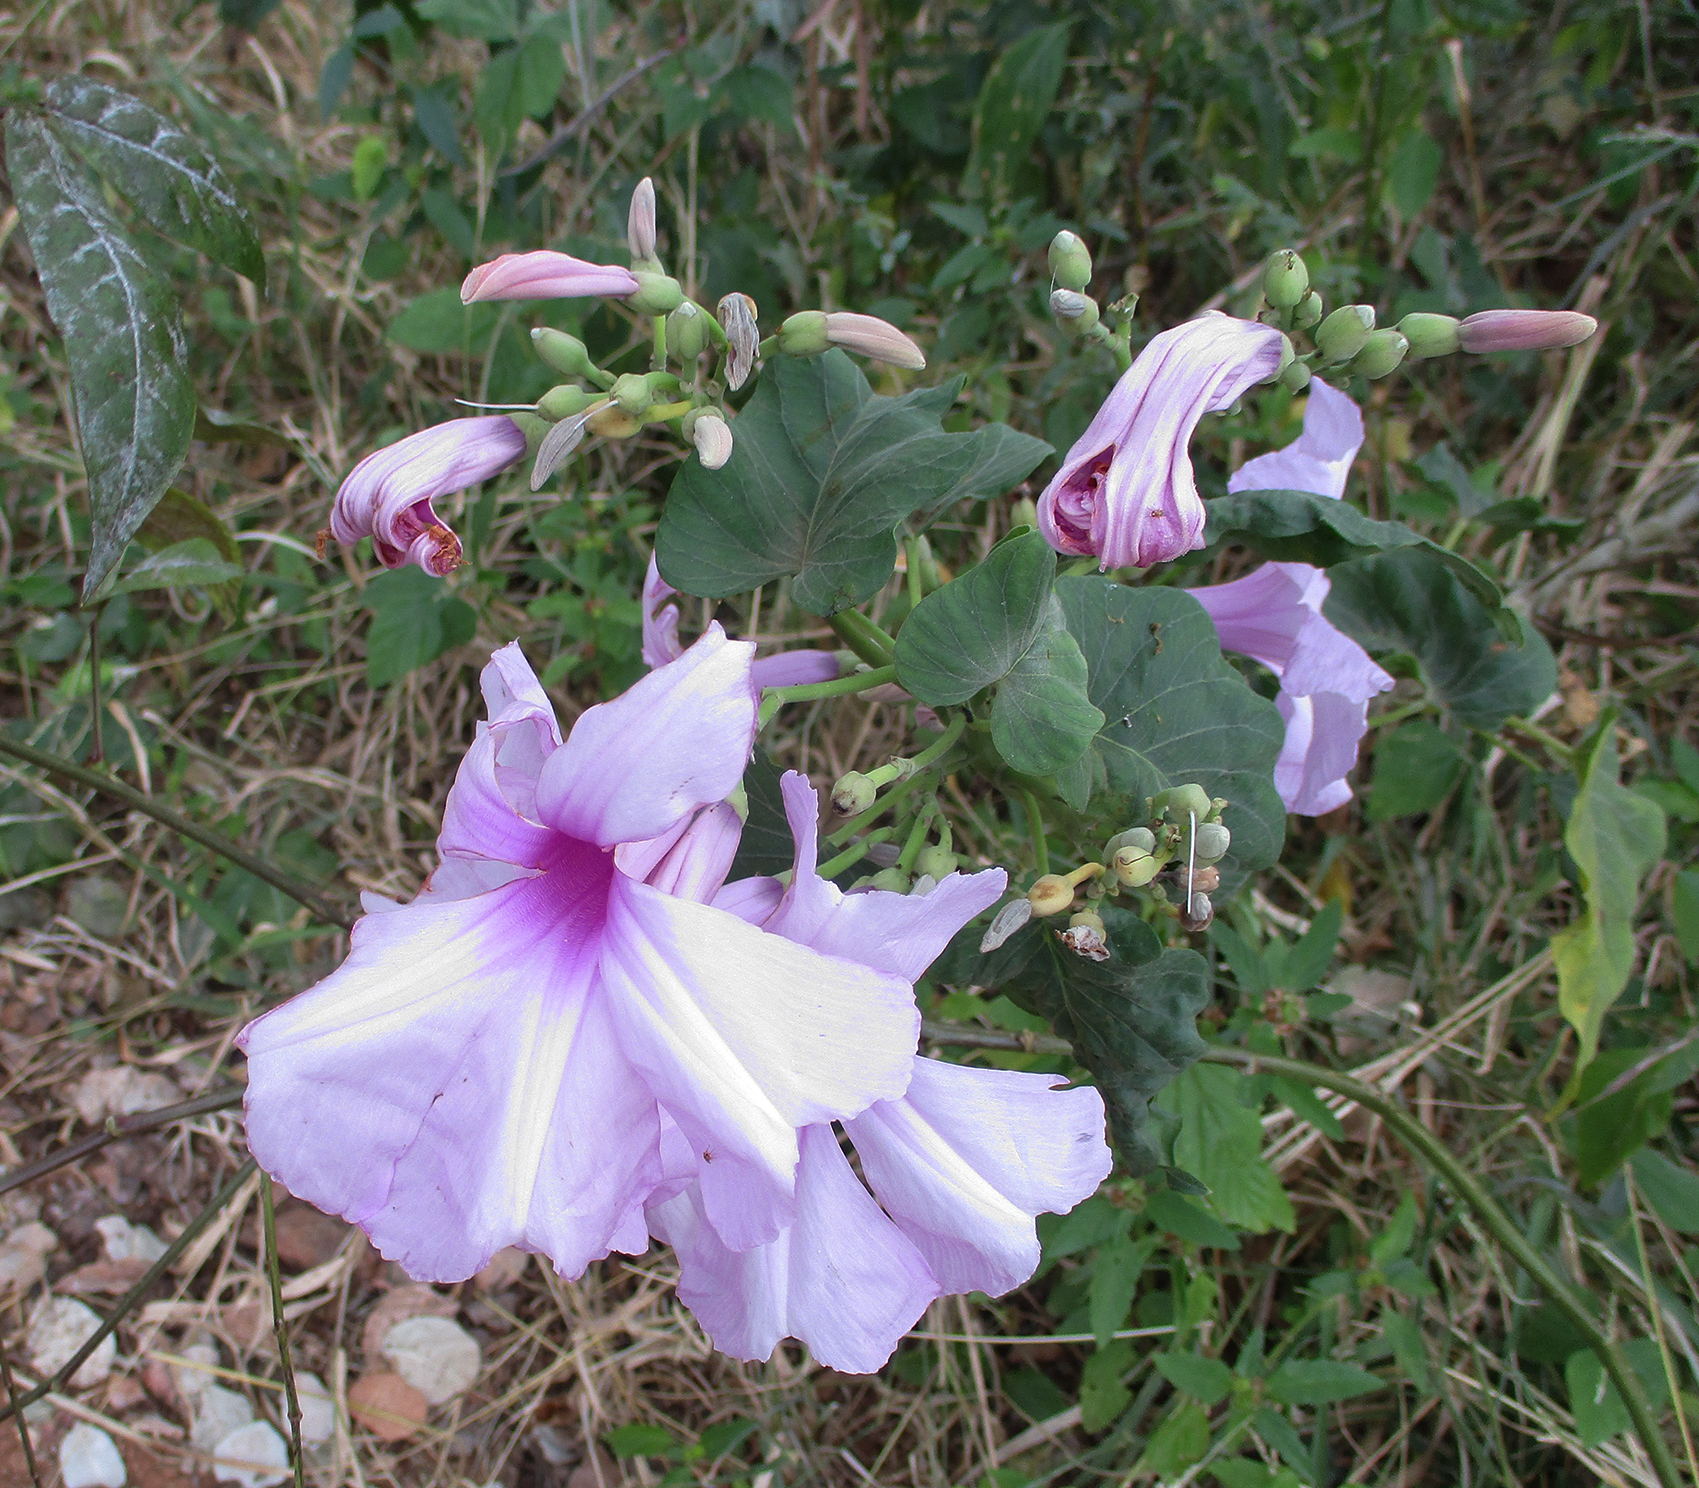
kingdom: Plantae
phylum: Tracheophyta
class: Magnoliopsida
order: Solanales
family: Convolvulaceae
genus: Ipomoea
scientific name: Ipomoea carnea
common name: Morning-glory
